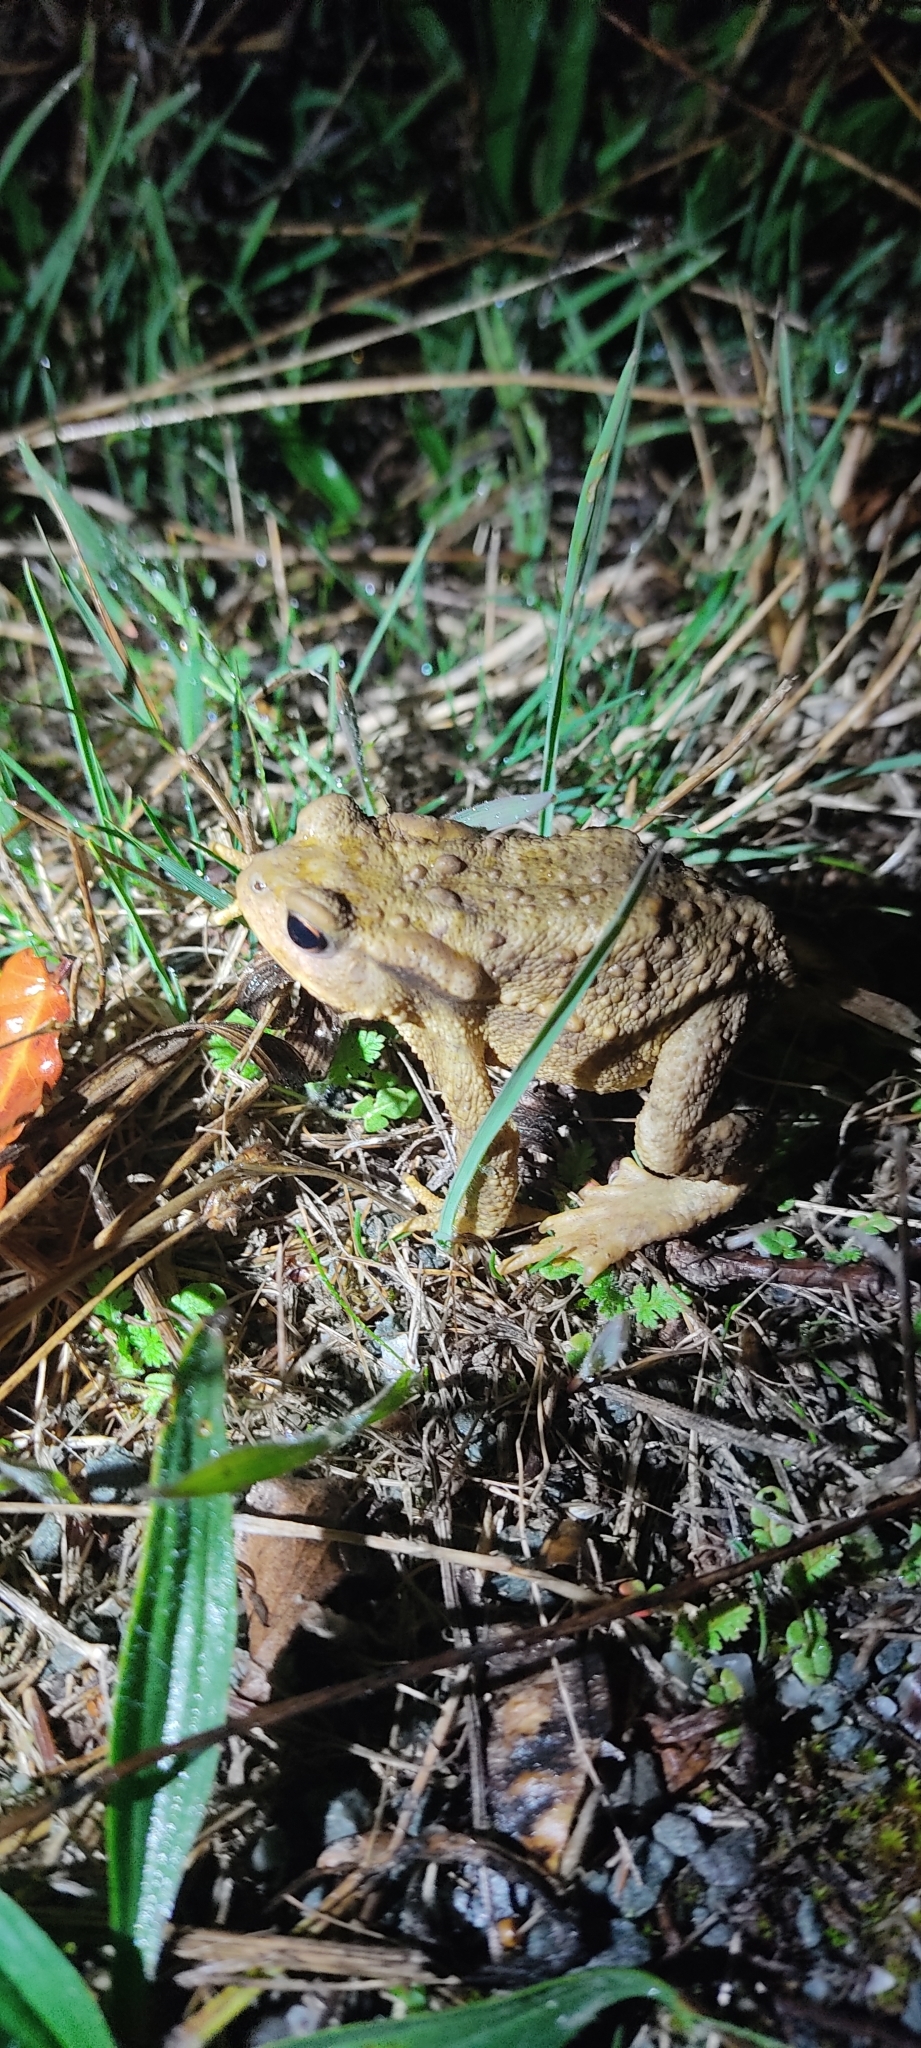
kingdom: Animalia
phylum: Chordata
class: Amphibia
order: Anura
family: Bufonidae
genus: Bufo
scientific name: Bufo spinosus
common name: Western common toad
